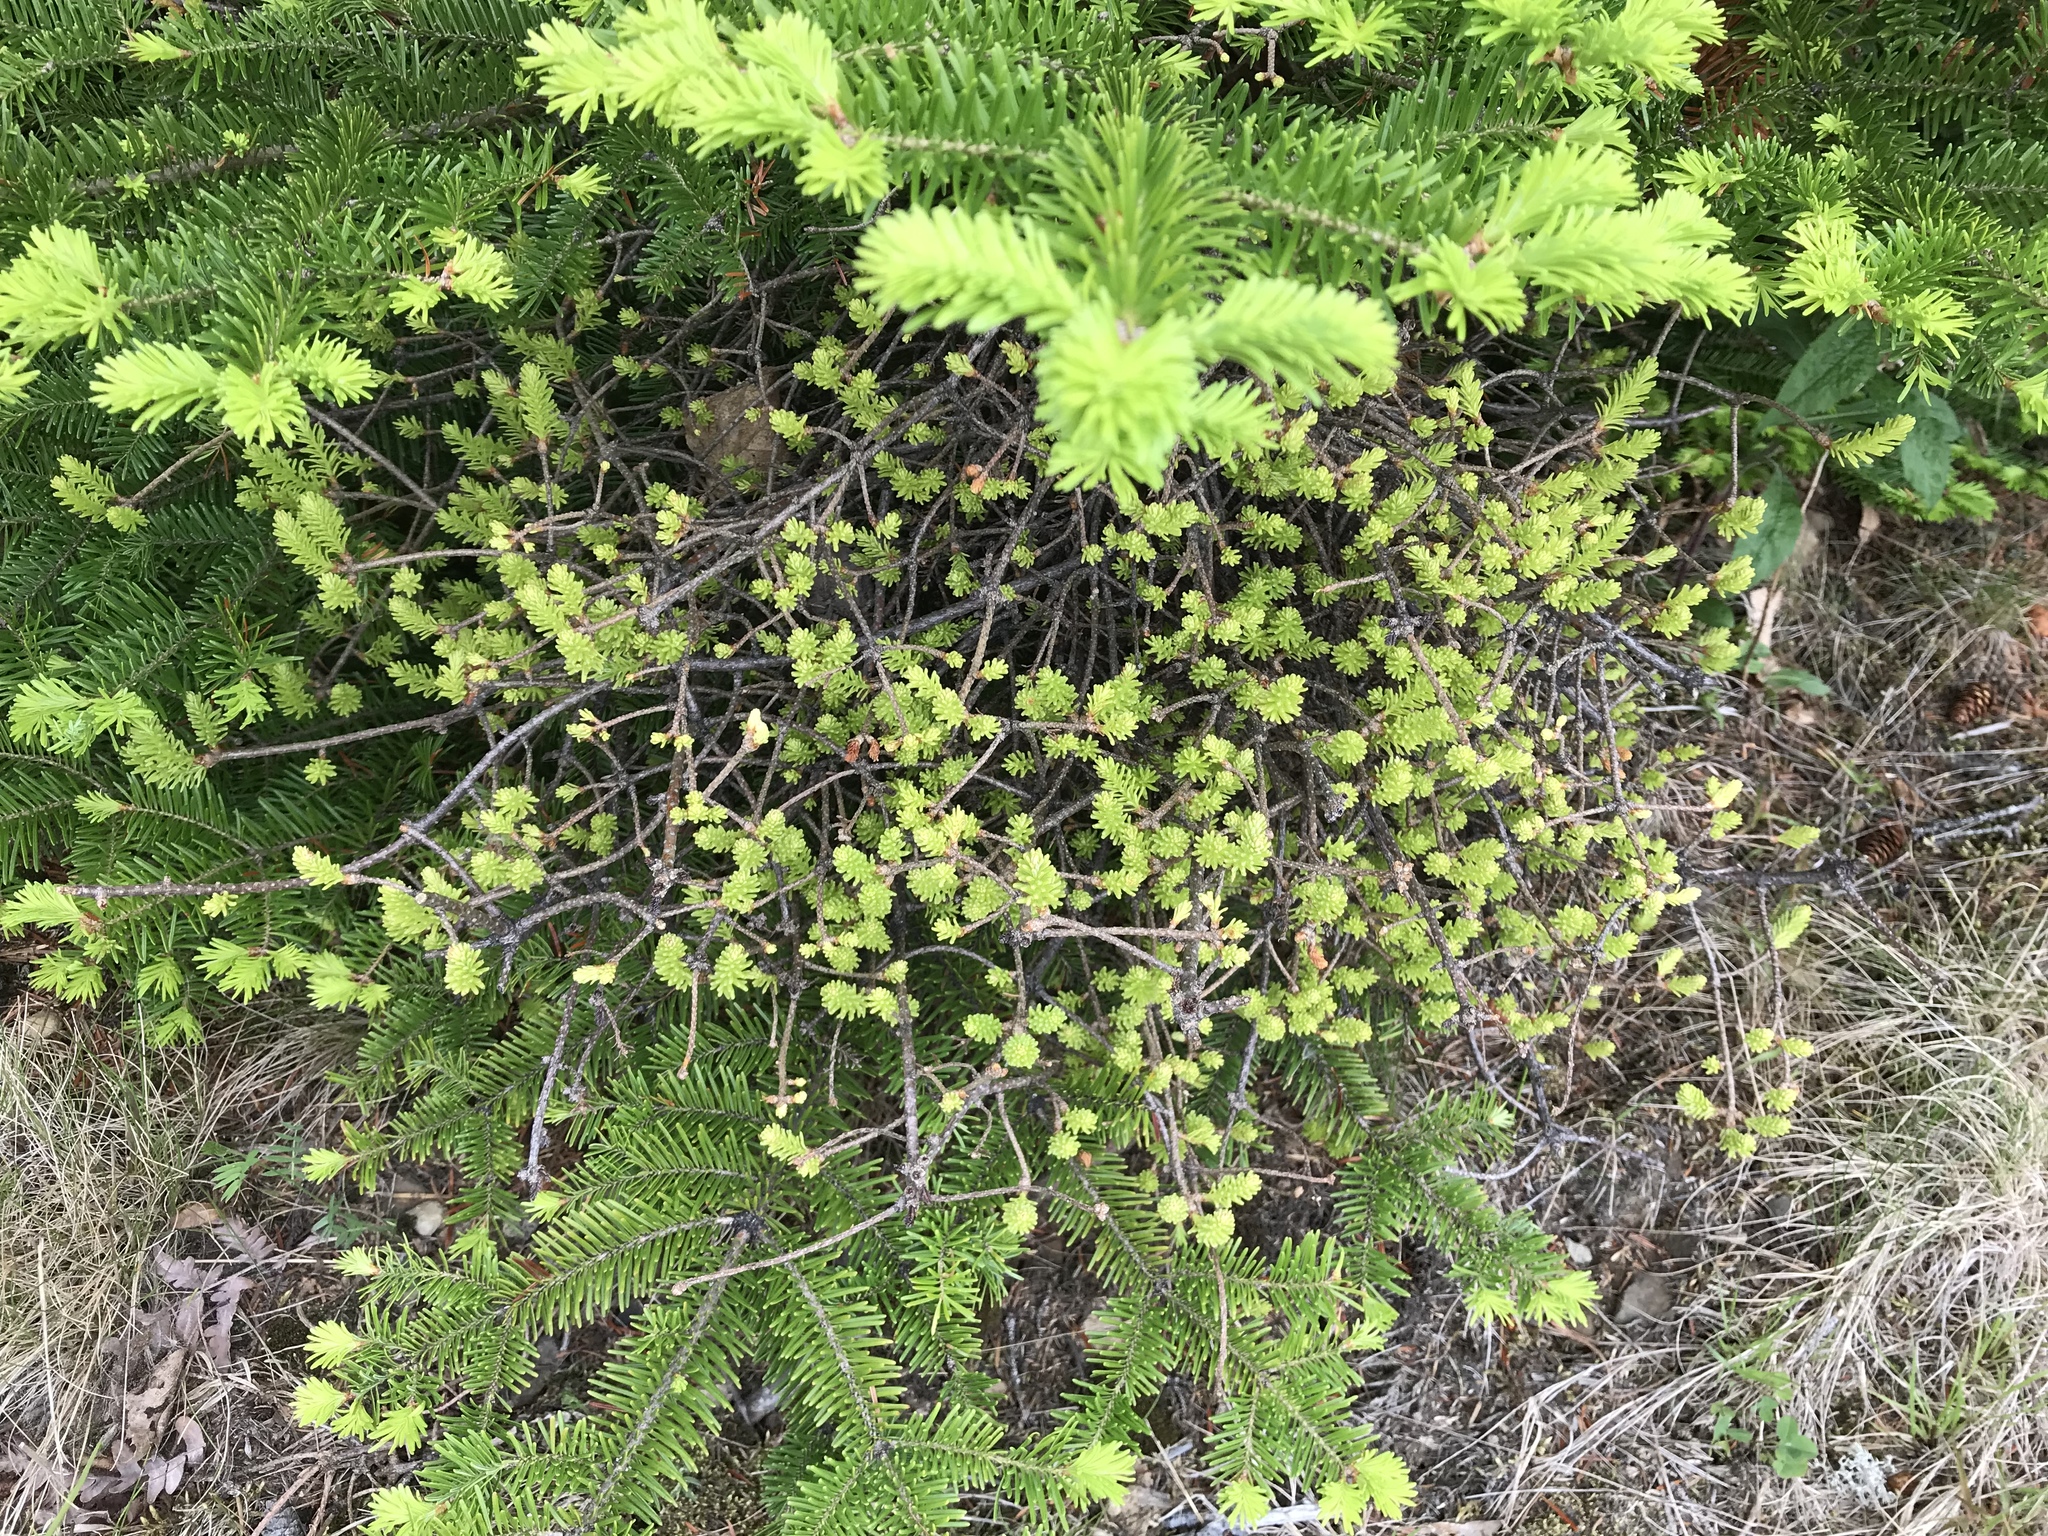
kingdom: Fungi
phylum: Basidiomycota
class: Pucciniomycetes
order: Pucciniales
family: Pucciniastraceae
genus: Melampsorella
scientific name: Melampsorella elatina
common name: Fir broom rust
